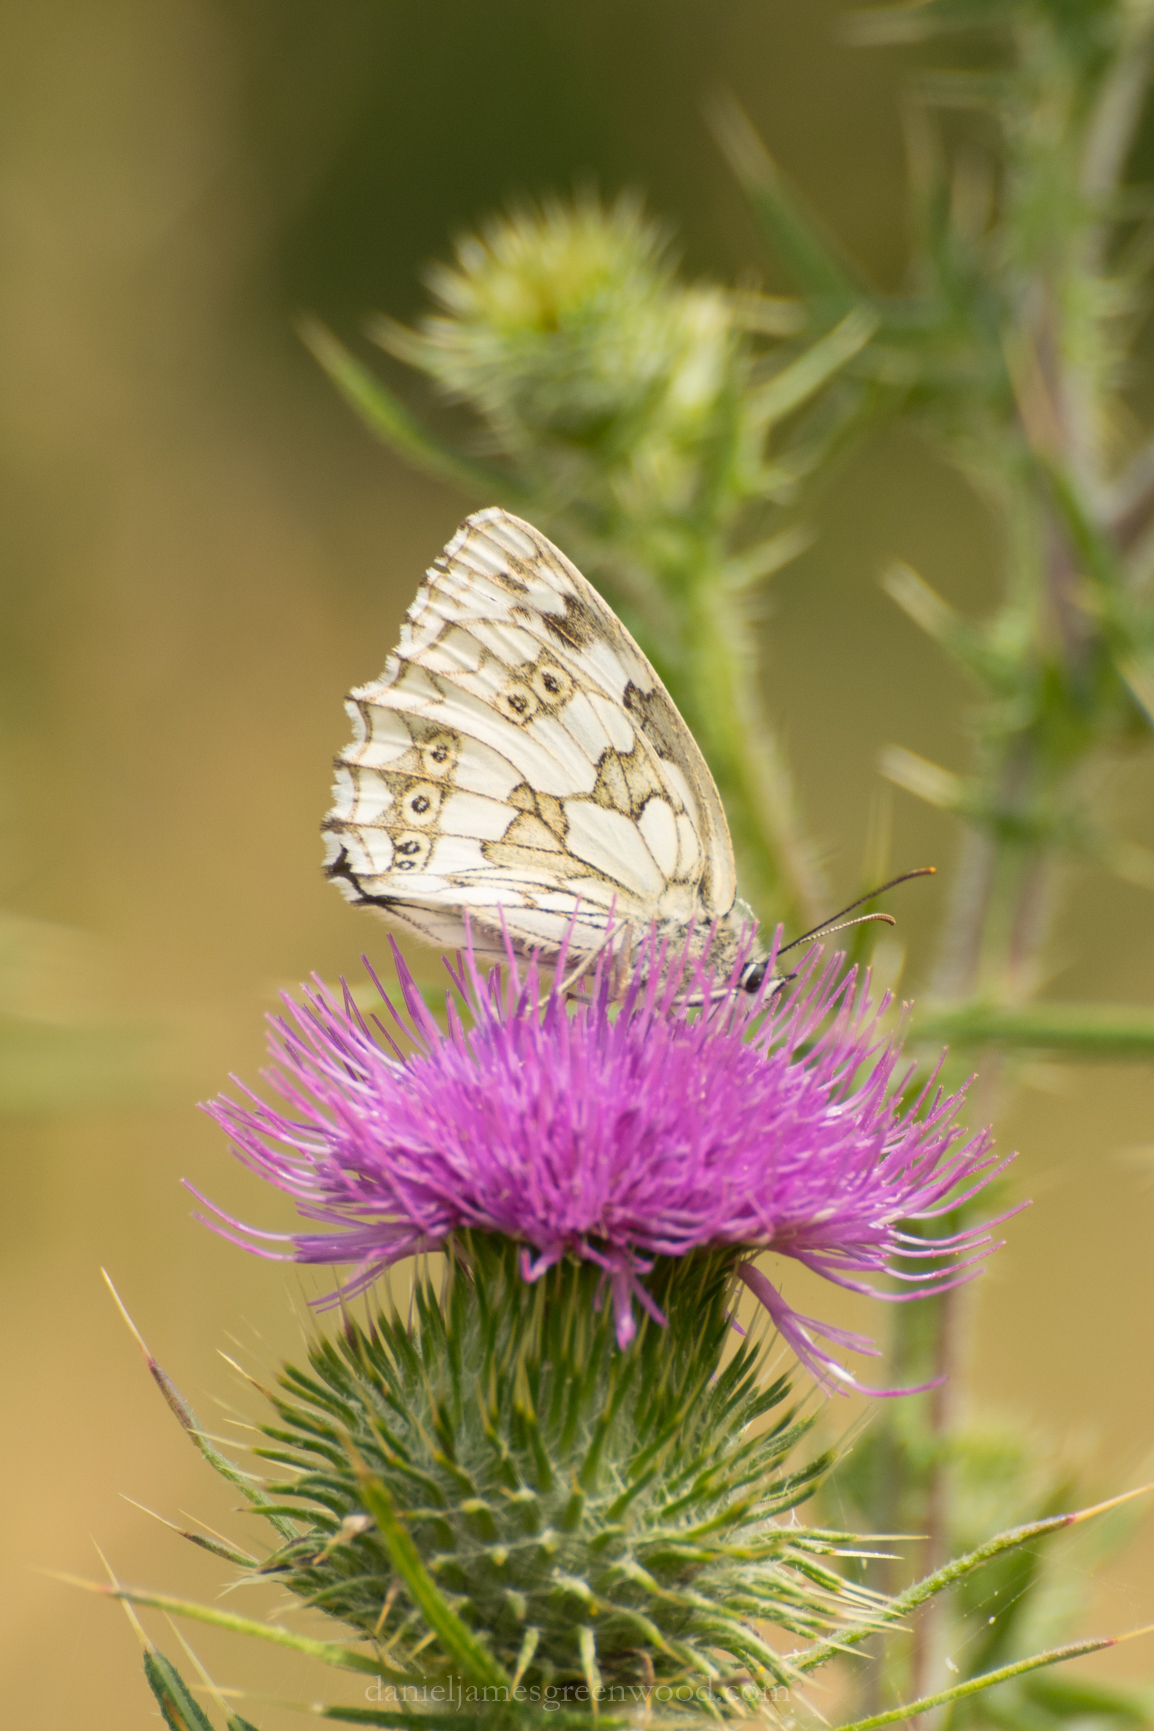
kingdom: Animalia
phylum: Arthropoda
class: Insecta
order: Lepidoptera
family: Nymphalidae
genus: Melanargia
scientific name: Melanargia galathea
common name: Marbled white
